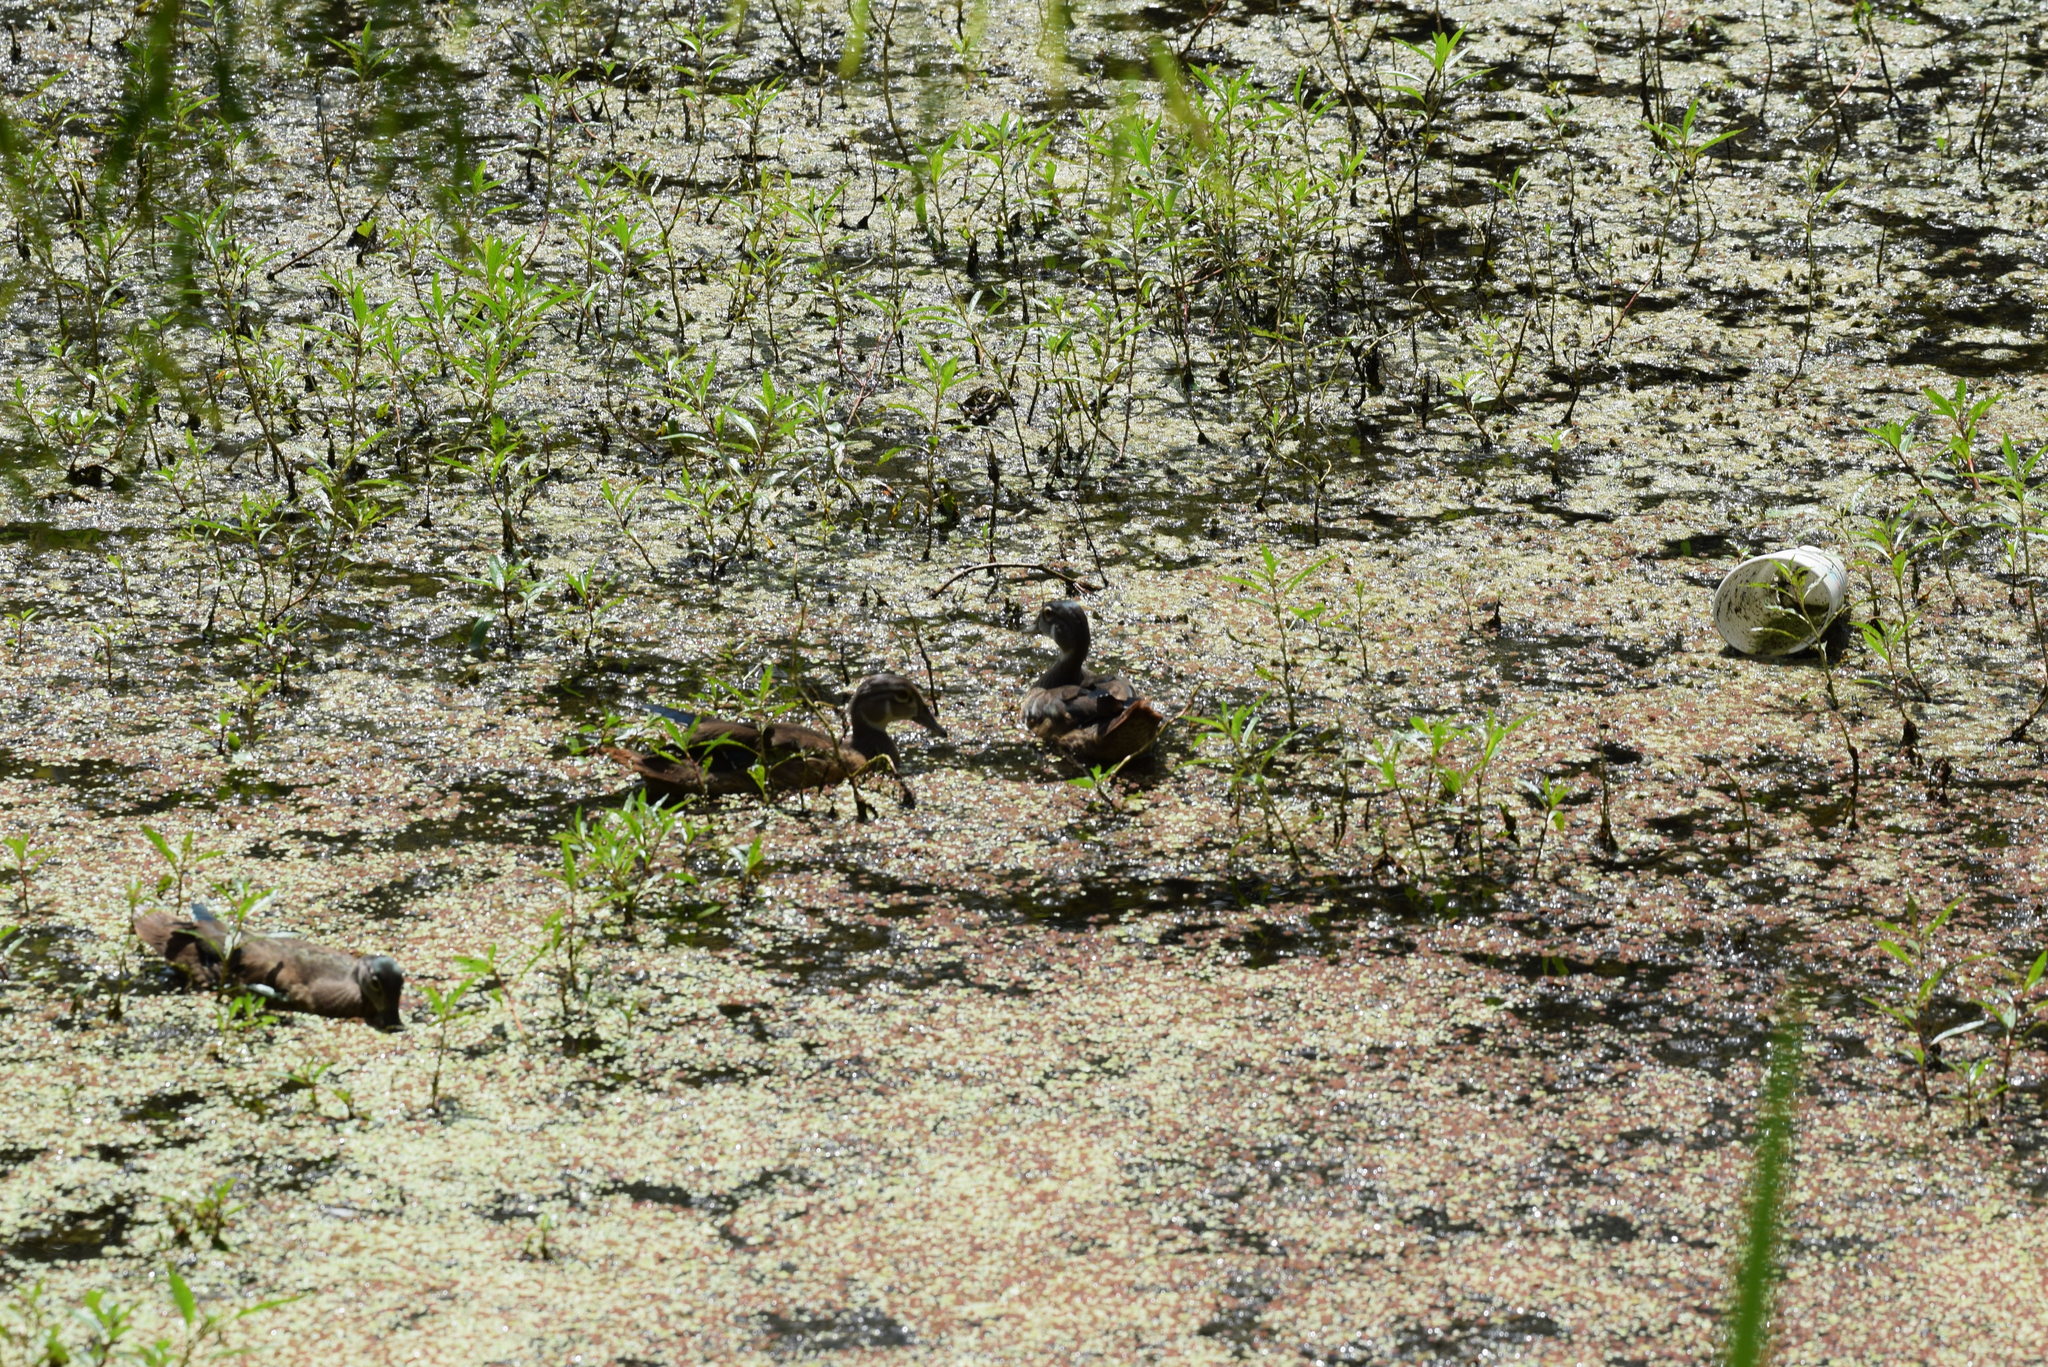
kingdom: Animalia
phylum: Chordata
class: Aves
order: Anseriformes
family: Anatidae
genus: Aix
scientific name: Aix sponsa
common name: Wood duck
